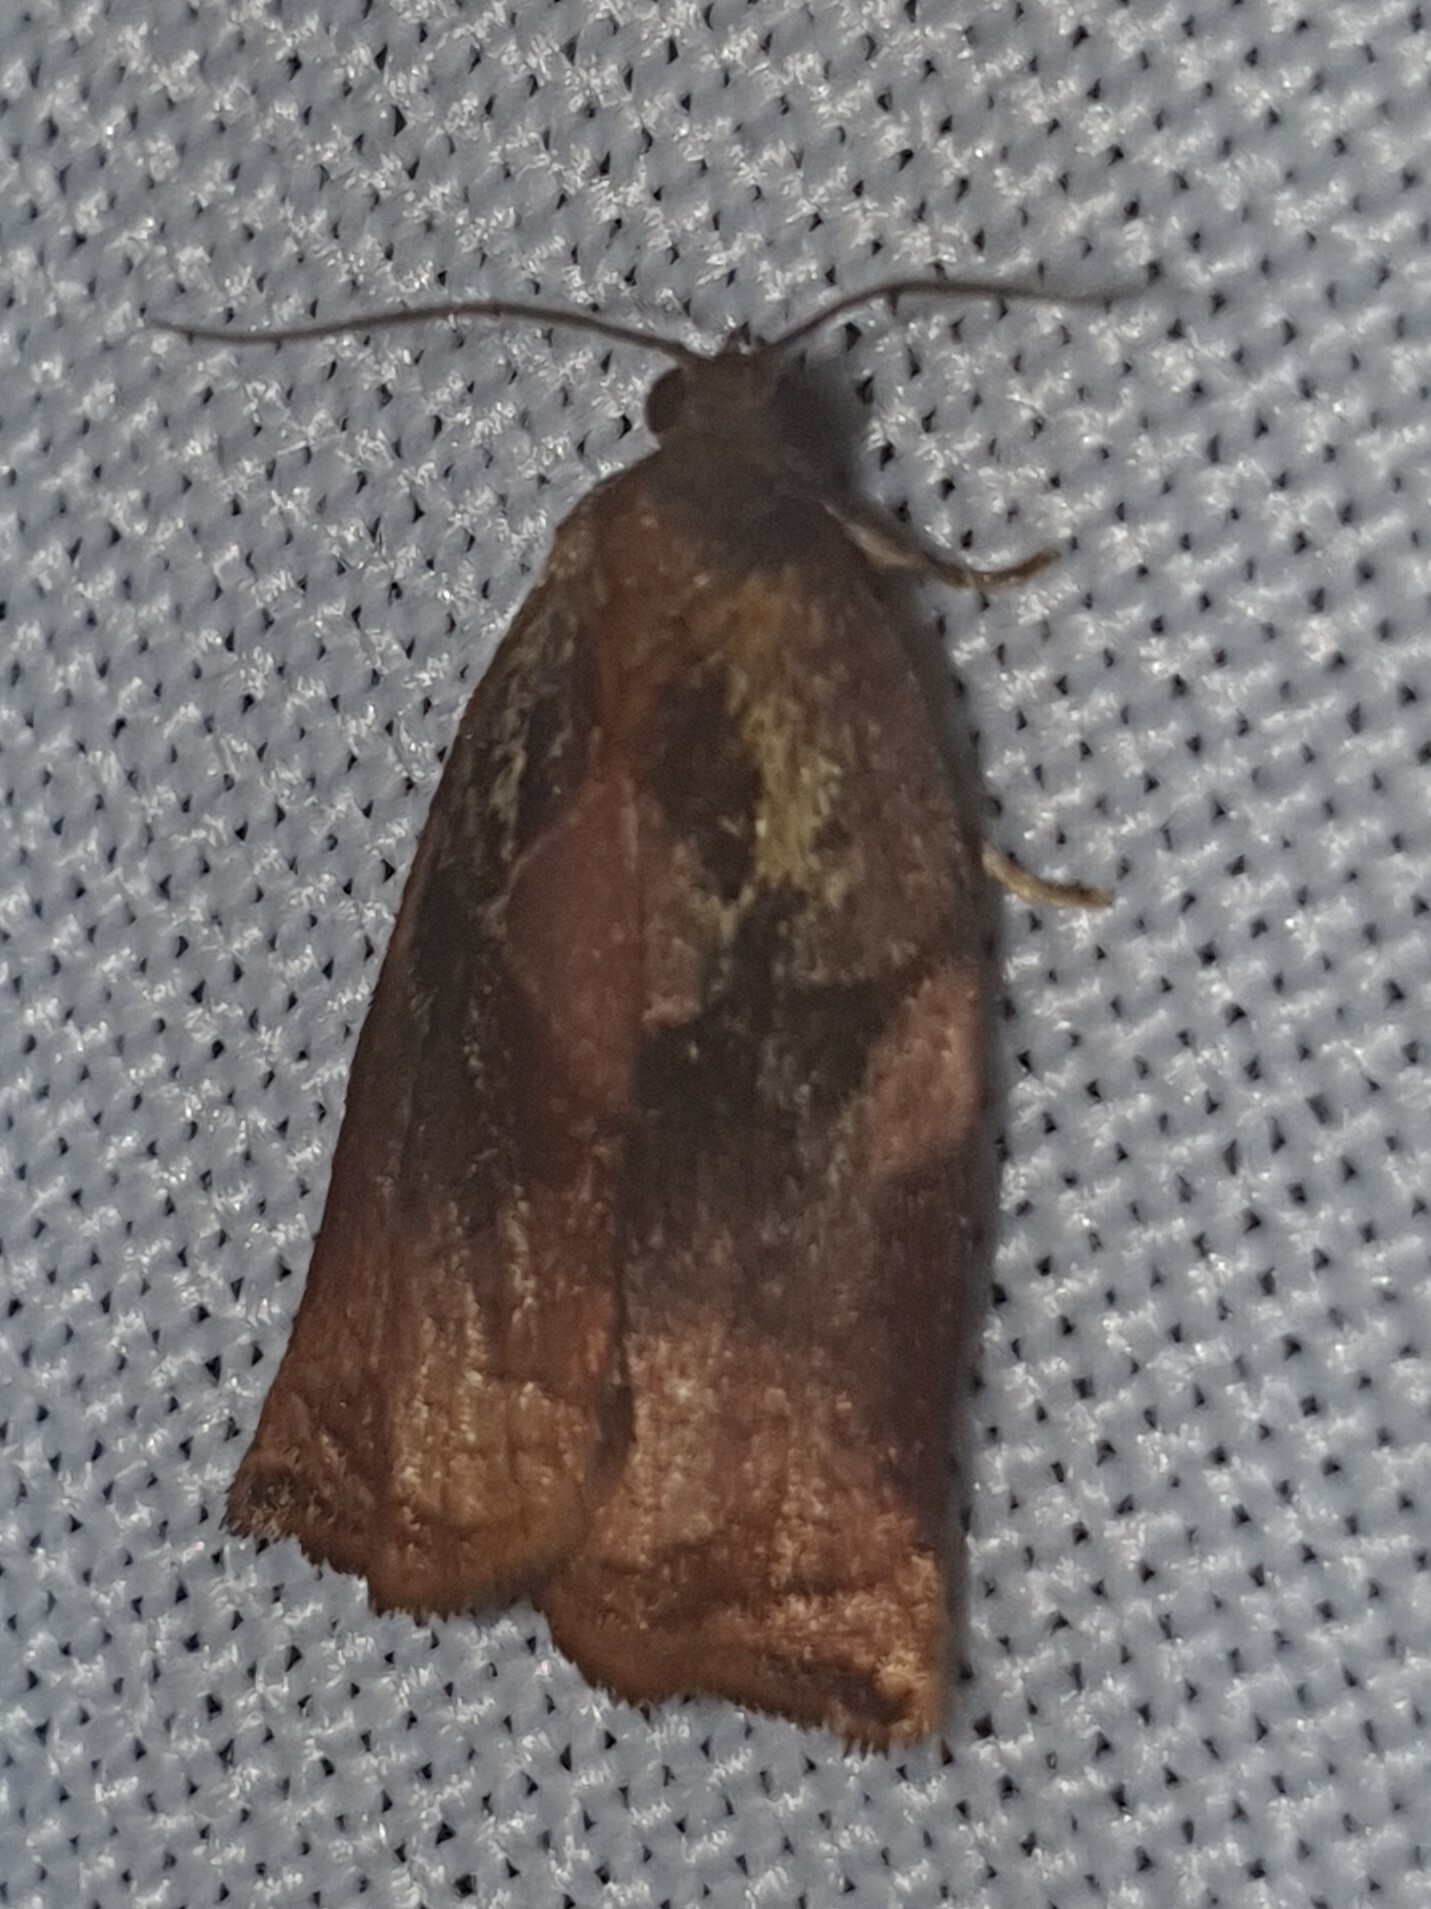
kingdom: Animalia
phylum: Arthropoda
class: Insecta
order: Lepidoptera
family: Tortricidae
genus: Archips
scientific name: Archips podana
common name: Large fruit-tree tortrix
